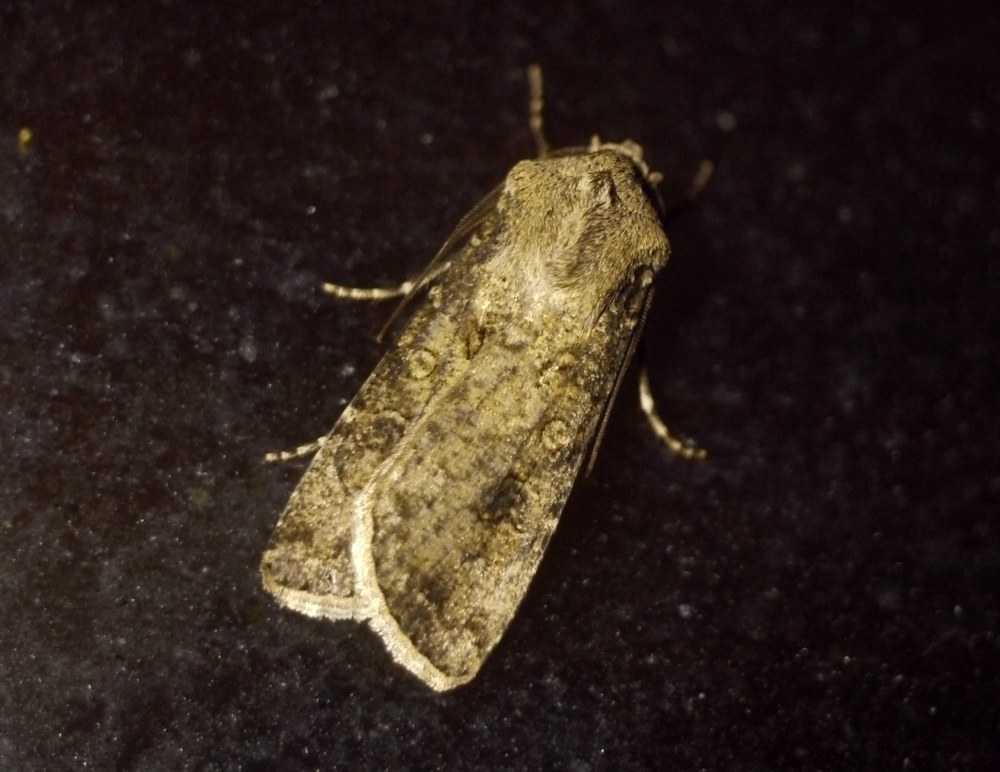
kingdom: Animalia
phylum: Arthropoda
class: Insecta
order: Lepidoptera
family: Noctuidae
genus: Agrotis
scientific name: Agrotis segetum
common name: Turnip moth
